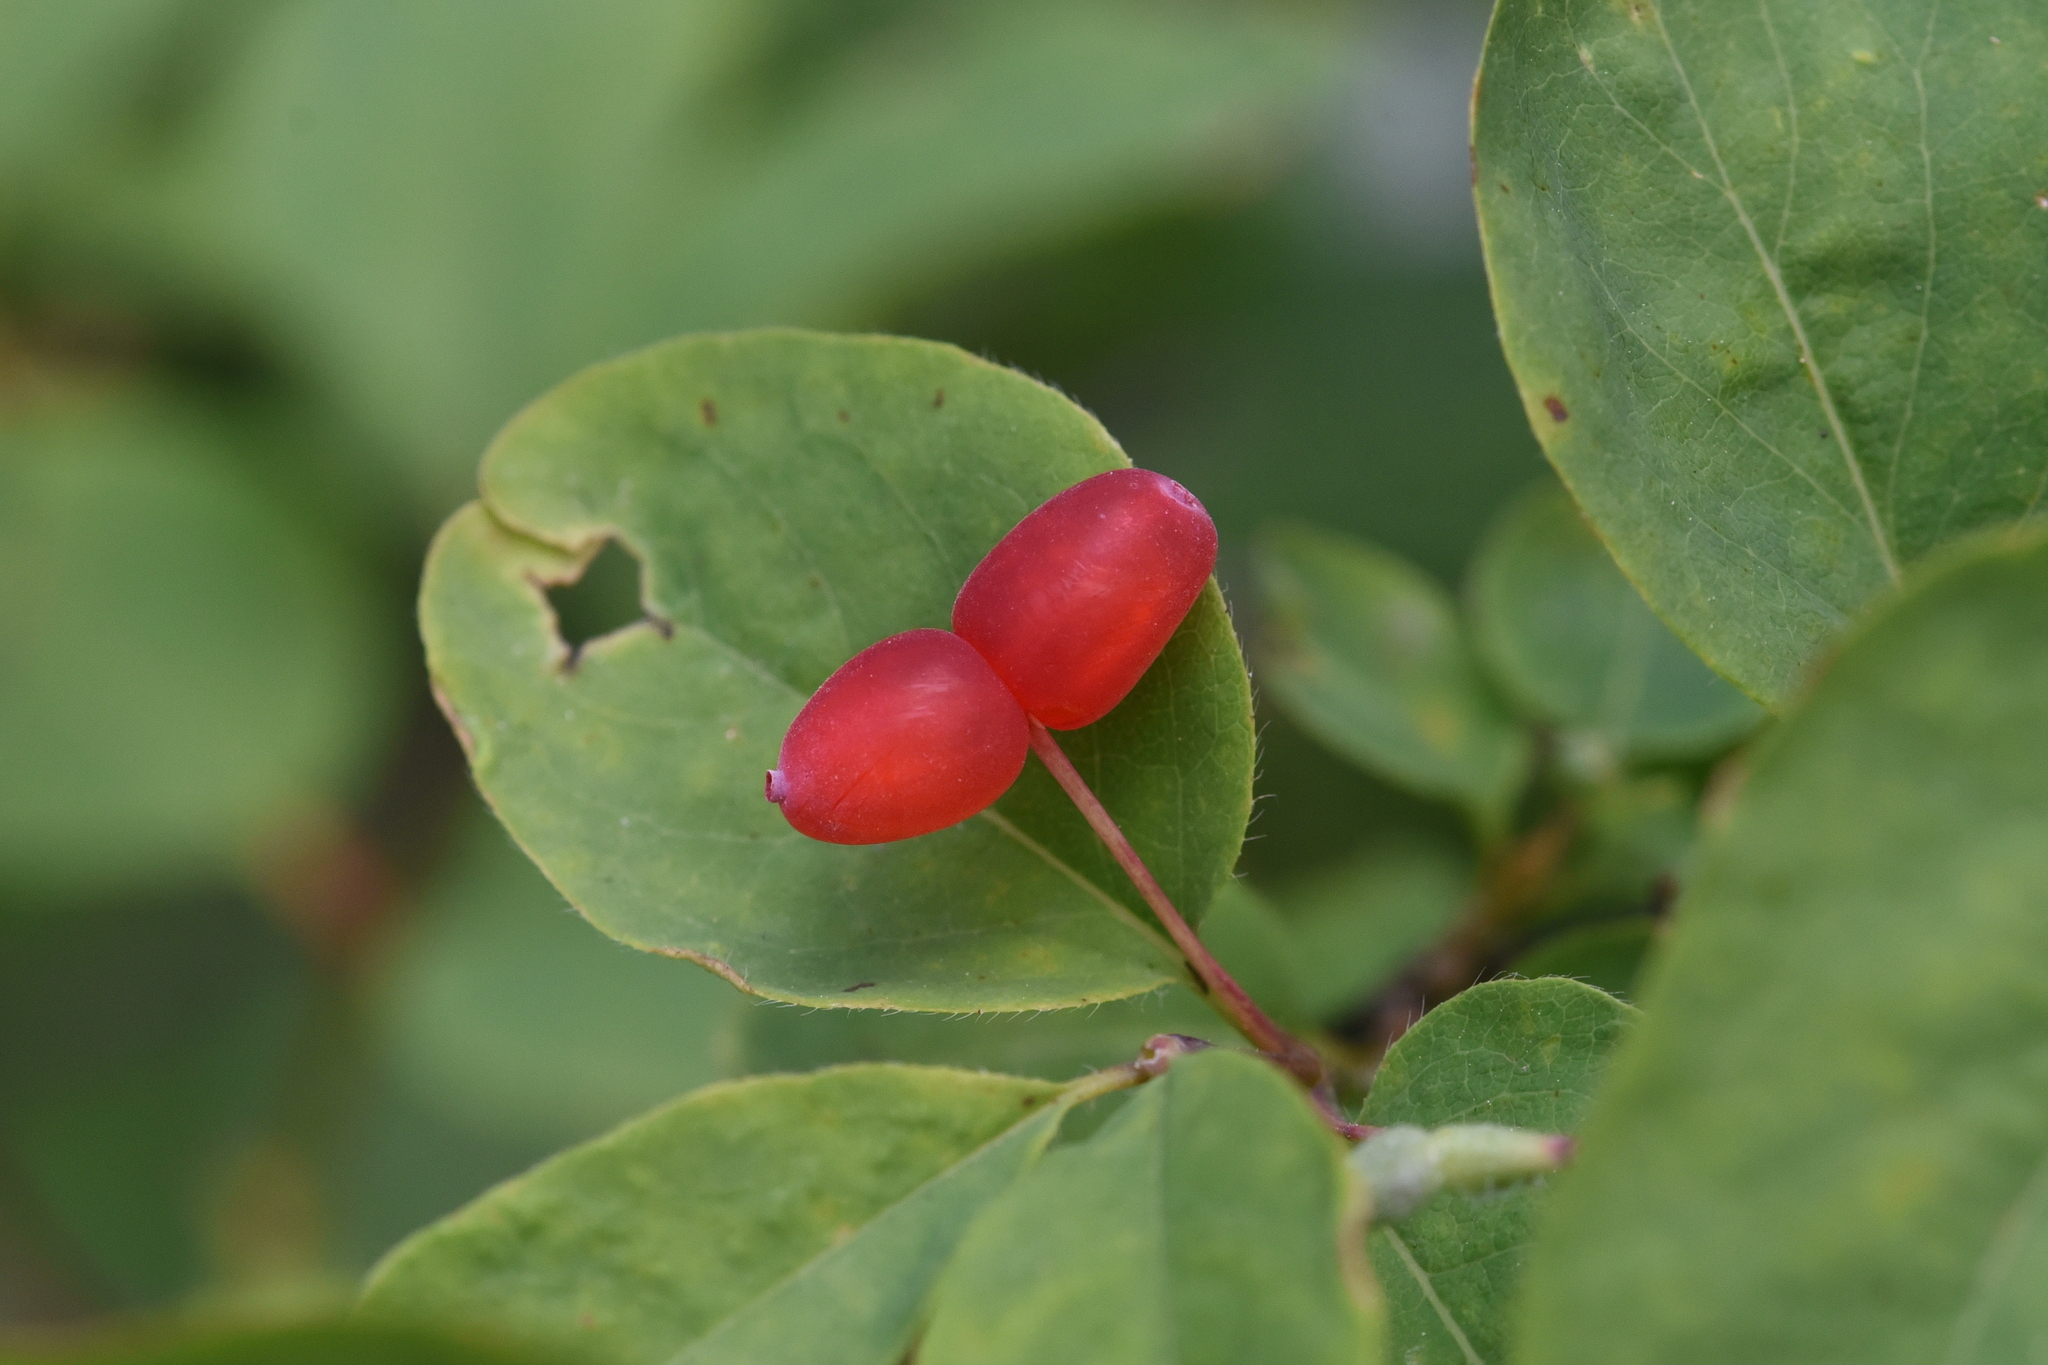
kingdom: Plantae
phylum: Tracheophyta
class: Magnoliopsida
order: Dipsacales
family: Caprifoliaceae
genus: Lonicera
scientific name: Lonicera utahensis
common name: Utah honeysuckle
